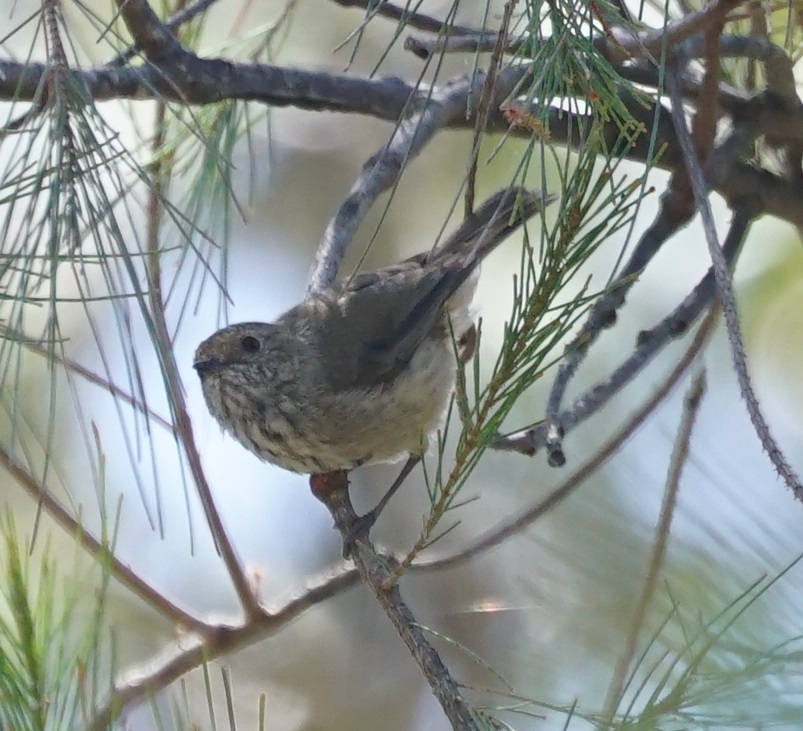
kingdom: Animalia
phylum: Chordata
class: Aves
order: Passeriformes
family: Acanthizidae
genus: Acanthiza
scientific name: Acanthiza pusilla
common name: Brown thornbill
